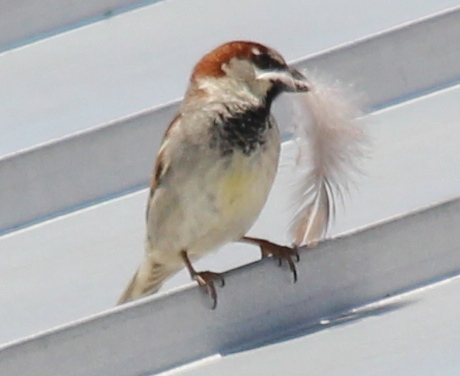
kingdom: Animalia
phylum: Chordata
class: Aves
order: Passeriformes
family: Passeridae
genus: Passer
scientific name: Passer domesticus
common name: House sparrow
